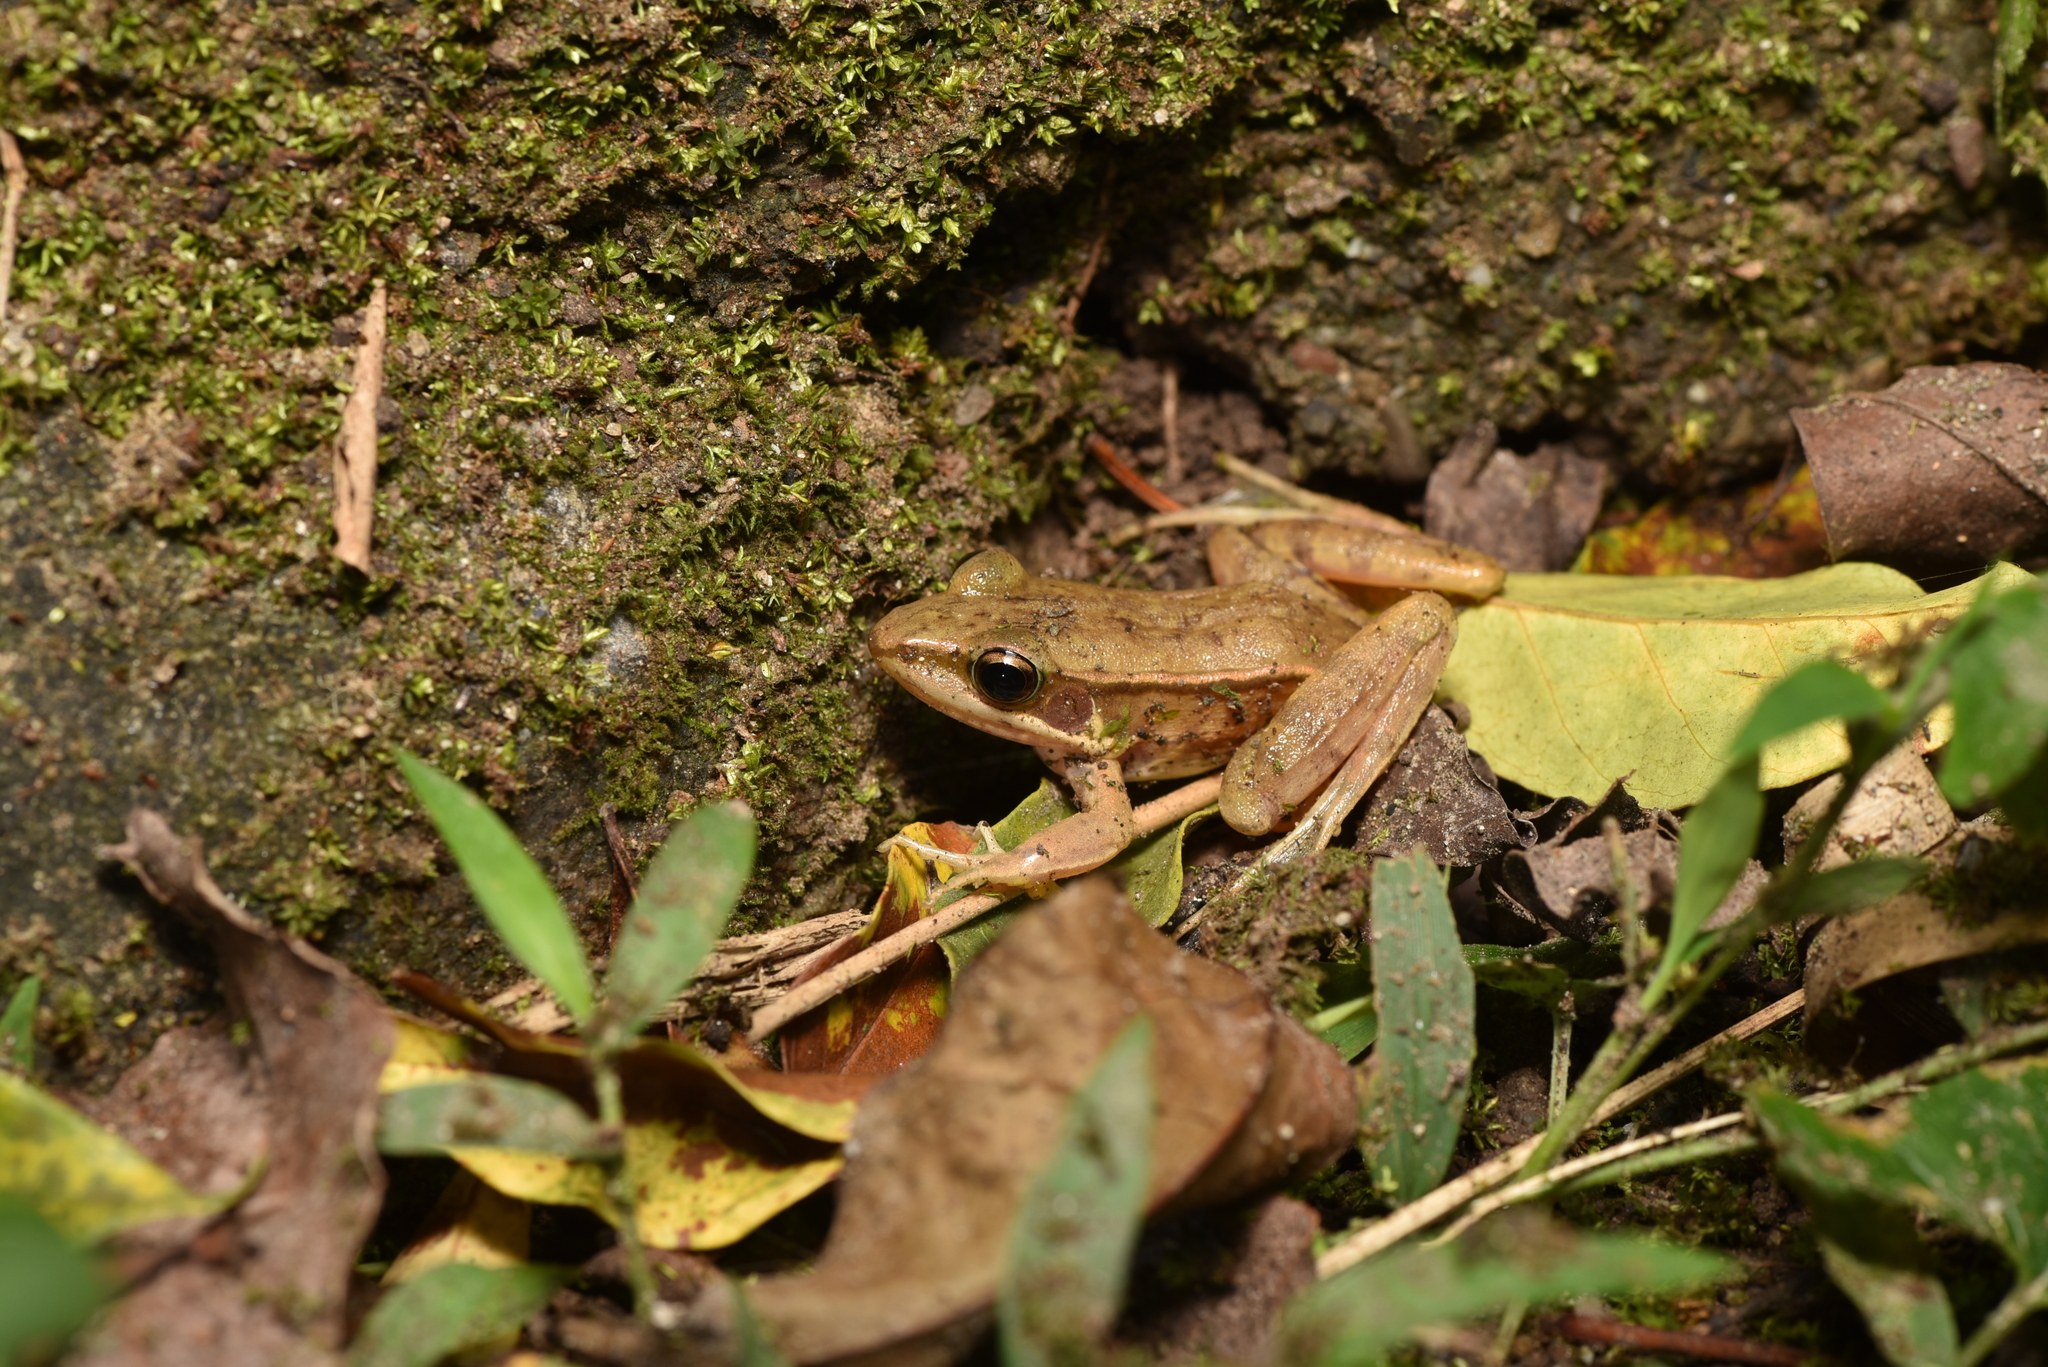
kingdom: Animalia
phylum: Chordata
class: Amphibia
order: Anura
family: Ranidae
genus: Sylvirana
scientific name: Sylvirana guentheri
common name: Guenther's amoy frog
